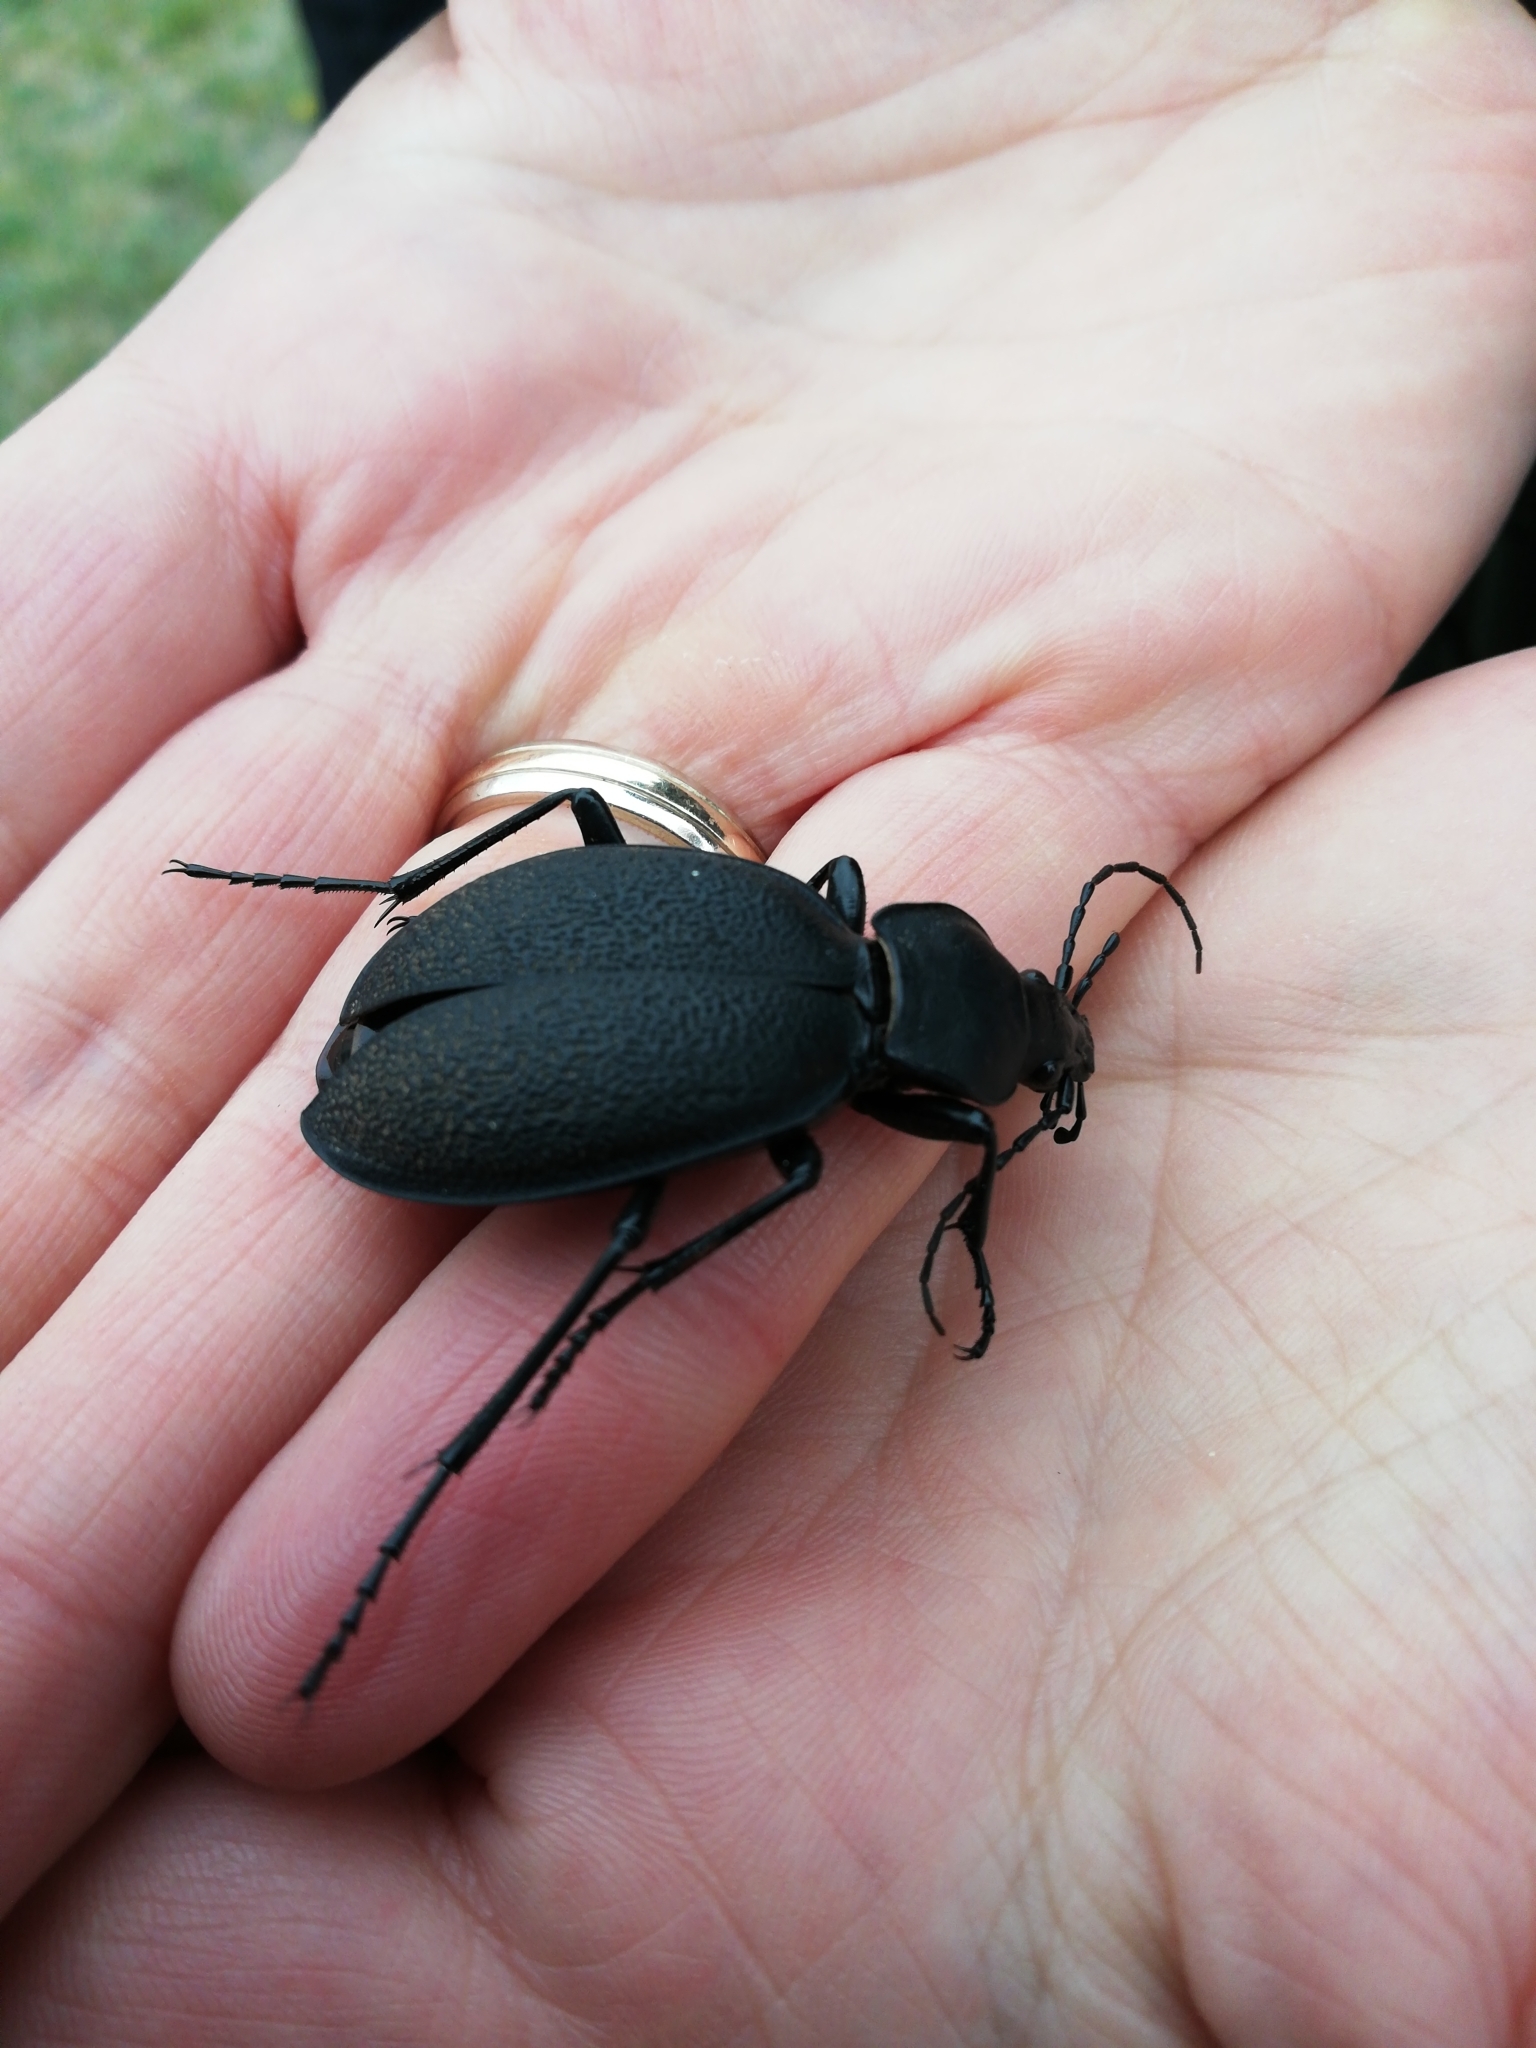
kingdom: Animalia
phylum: Arthropoda
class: Insecta
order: Coleoptera
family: Carabidae
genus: Carabus
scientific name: Carabus coriaceus
